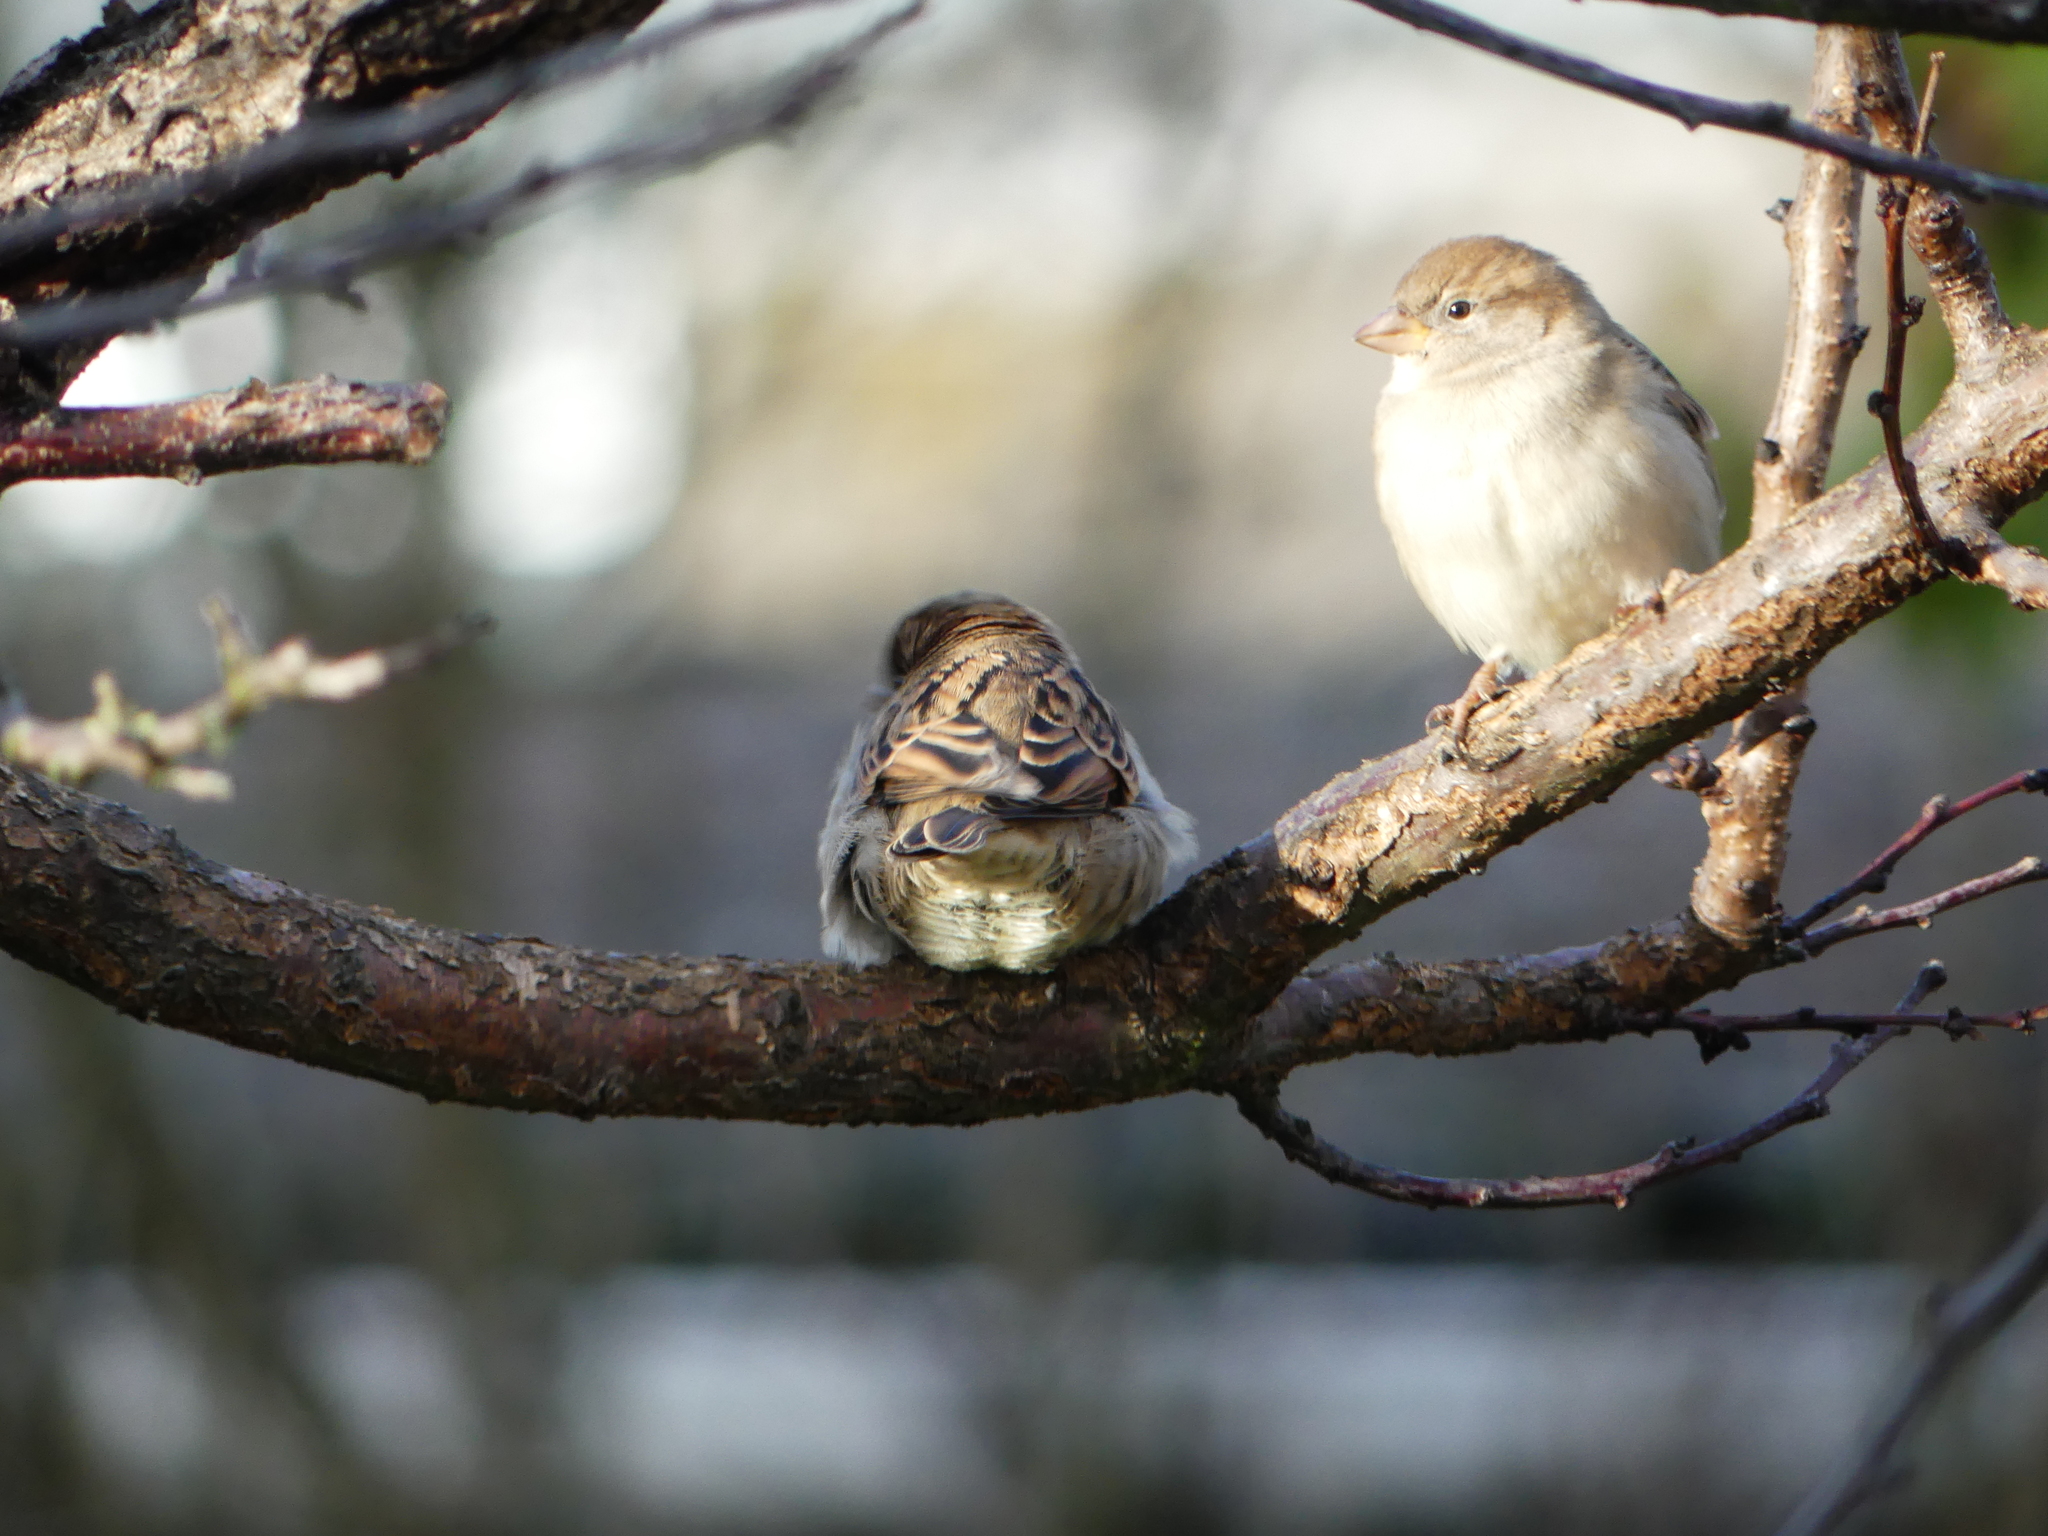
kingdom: Animalia
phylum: Chordata
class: Aves
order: Passeriformes
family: Passeridae
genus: Passer
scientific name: Passer domesticus
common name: House sparrow
